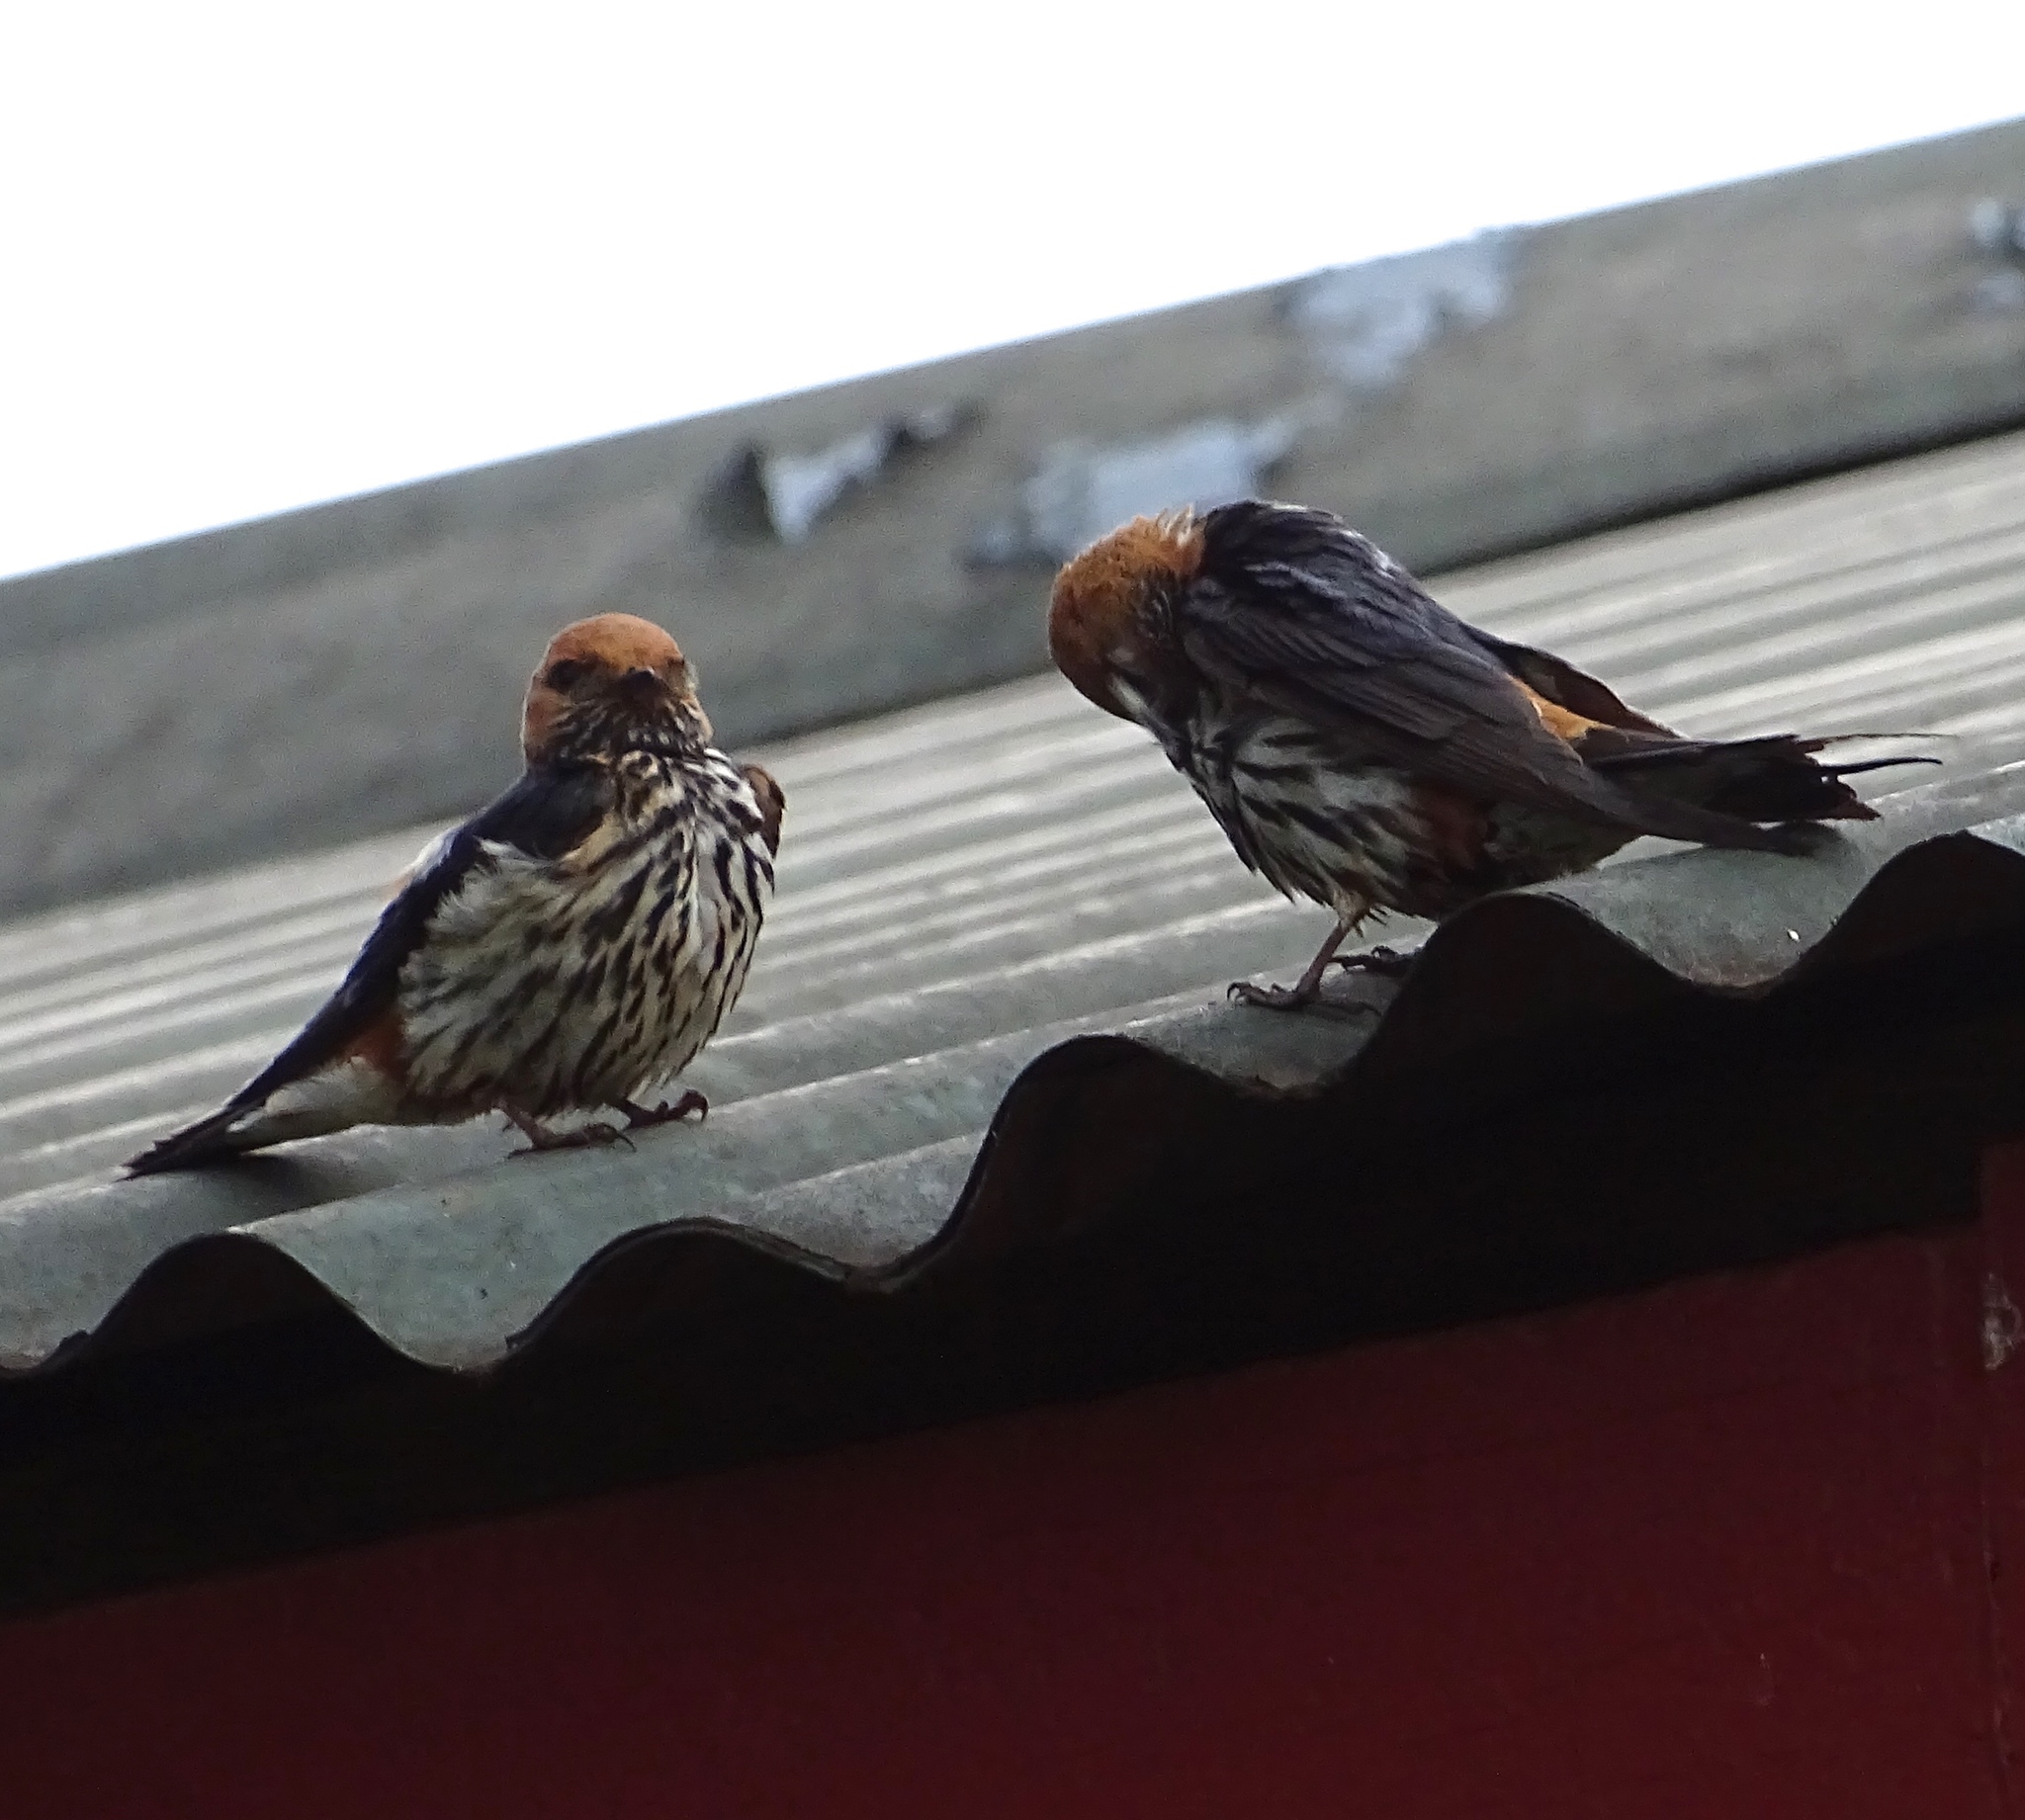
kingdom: Animalia
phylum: Chordata
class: Aves
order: Passeriformes
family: Hirundinidae
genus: Cecropis
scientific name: Cecropis abyssinica
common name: Lesser striped-swallow
